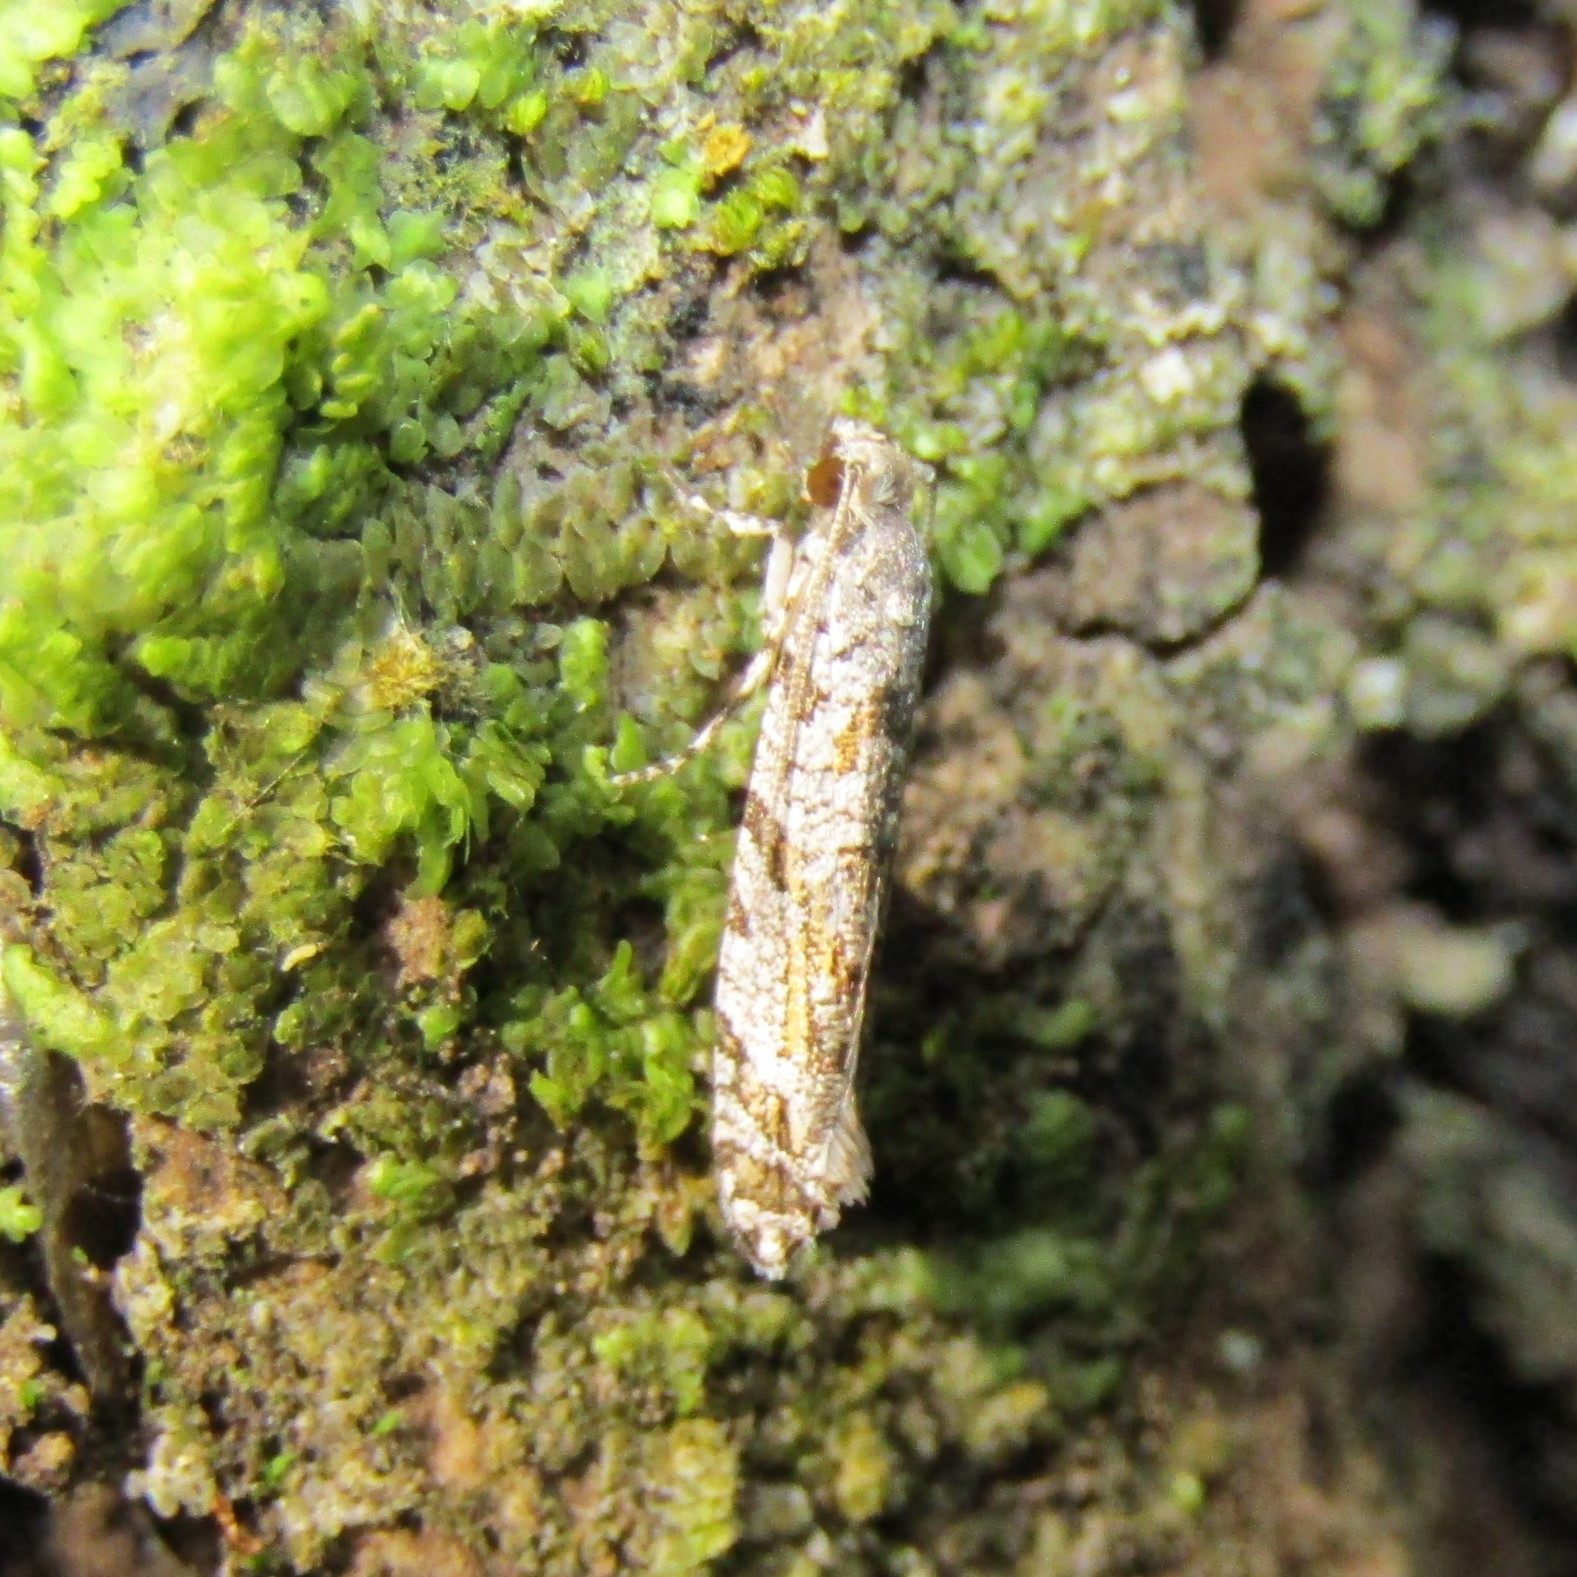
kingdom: Animalia
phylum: Arthropoda
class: Insecta
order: Lepidoptera
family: Tineidae
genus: Archyala
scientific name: Archyala paraglypta
